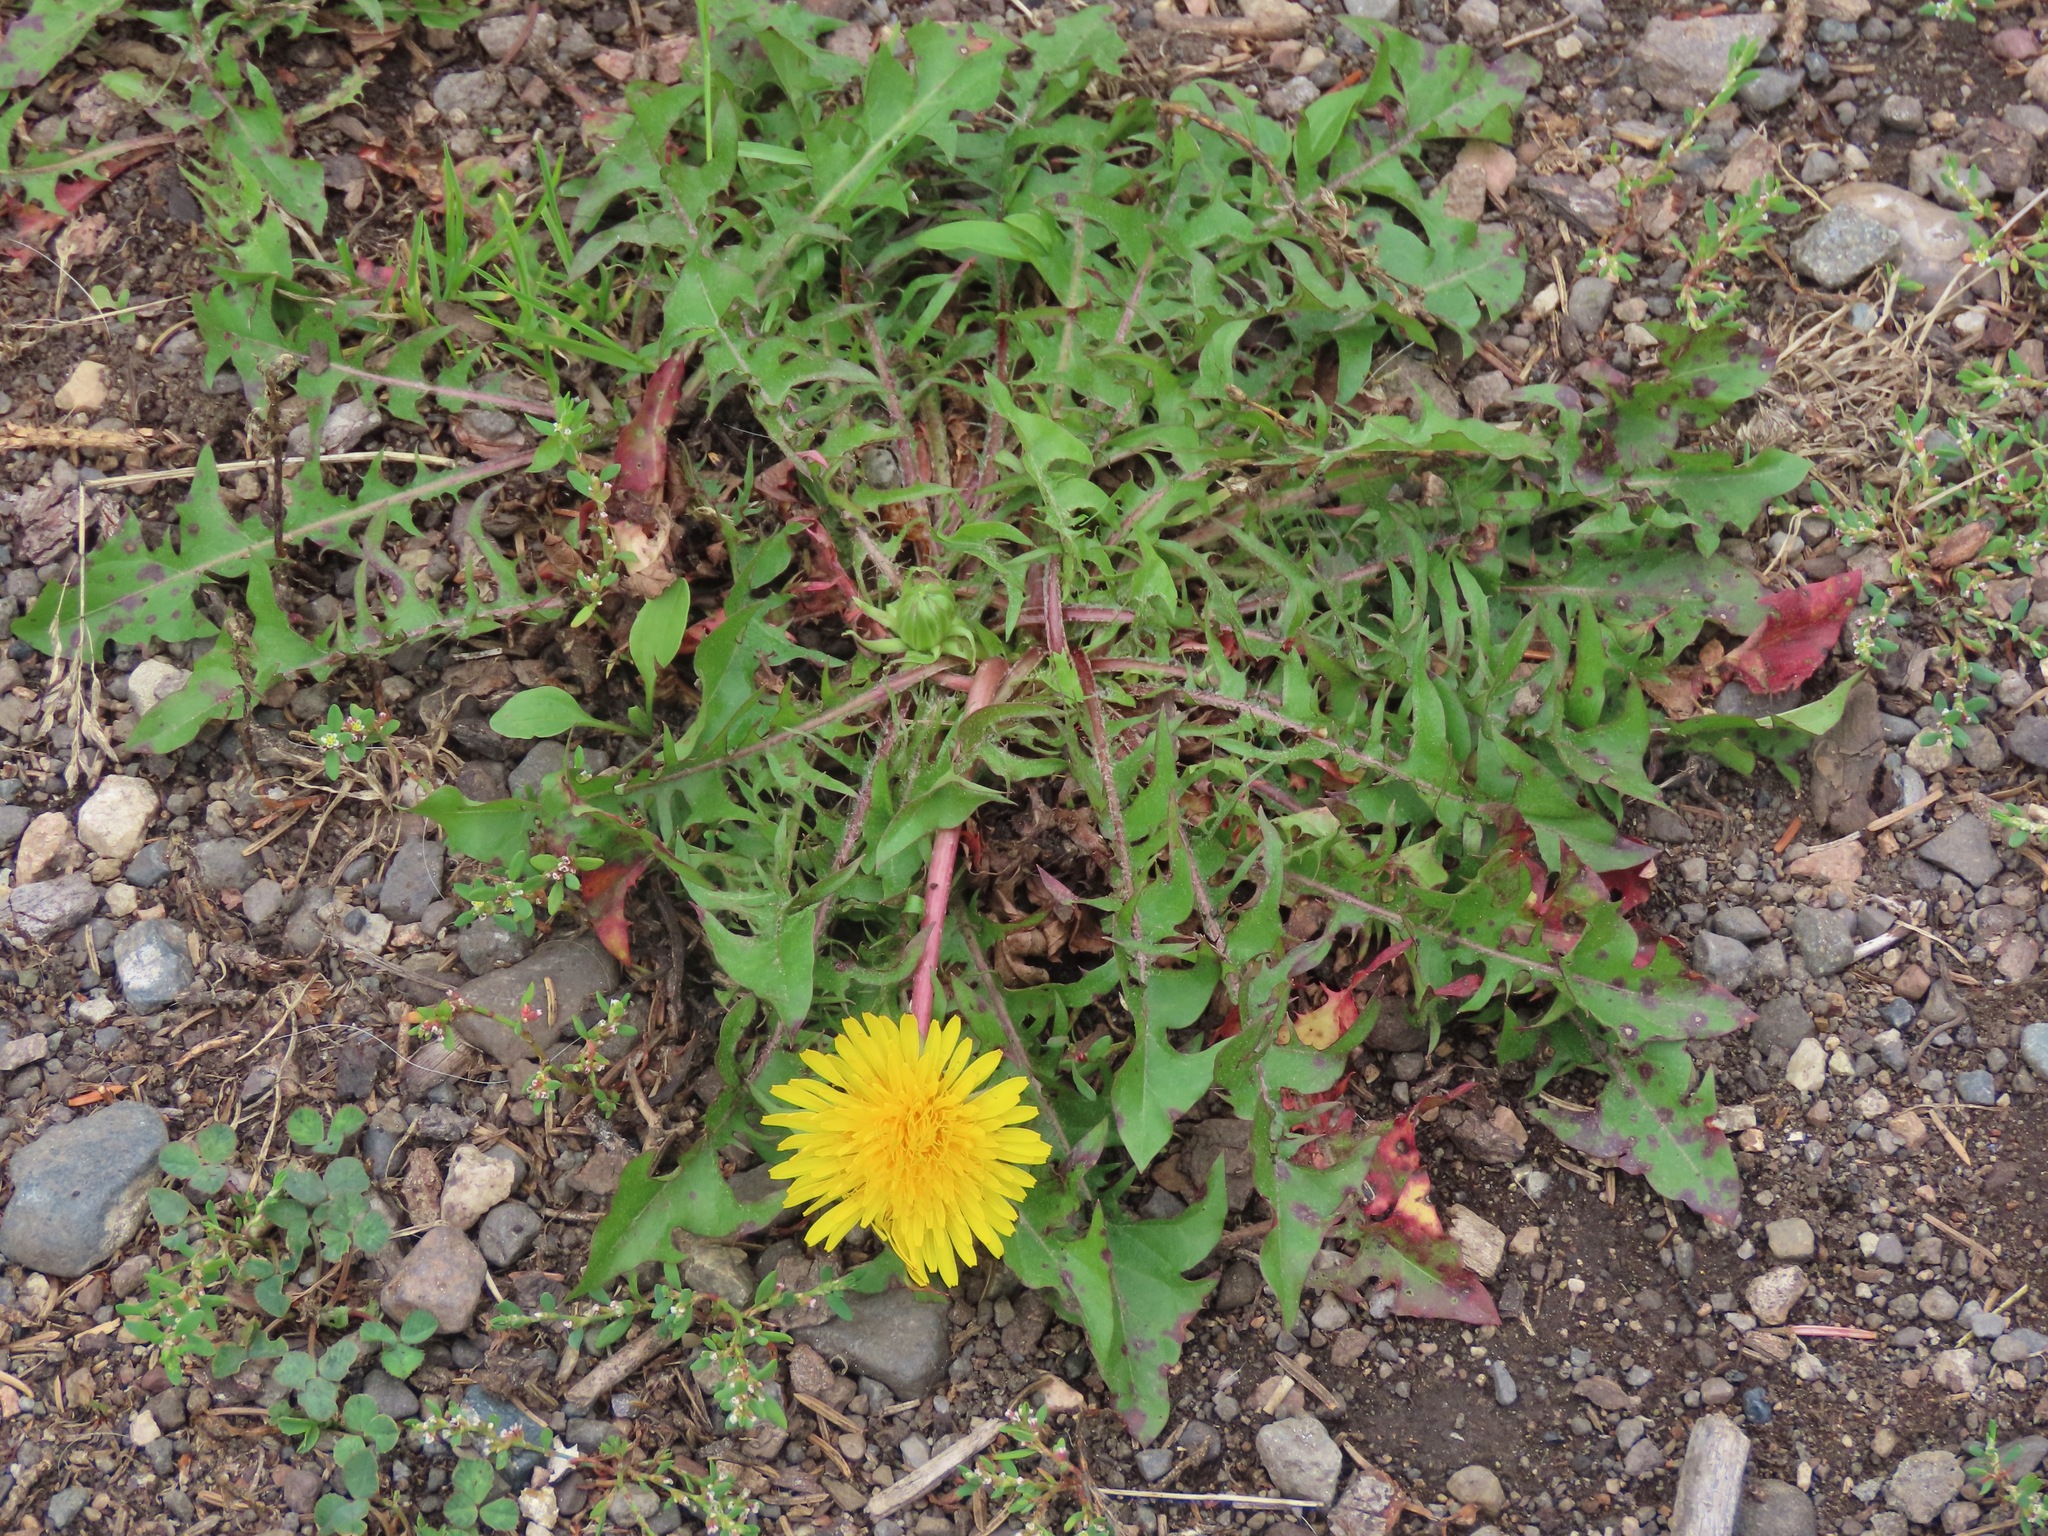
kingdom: Plantae
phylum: Tracheophyta
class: Magnoliopsida
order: Asterales
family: Asteraceae
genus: Taraxacum
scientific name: Taraxacum officinale
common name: Common dandelion
